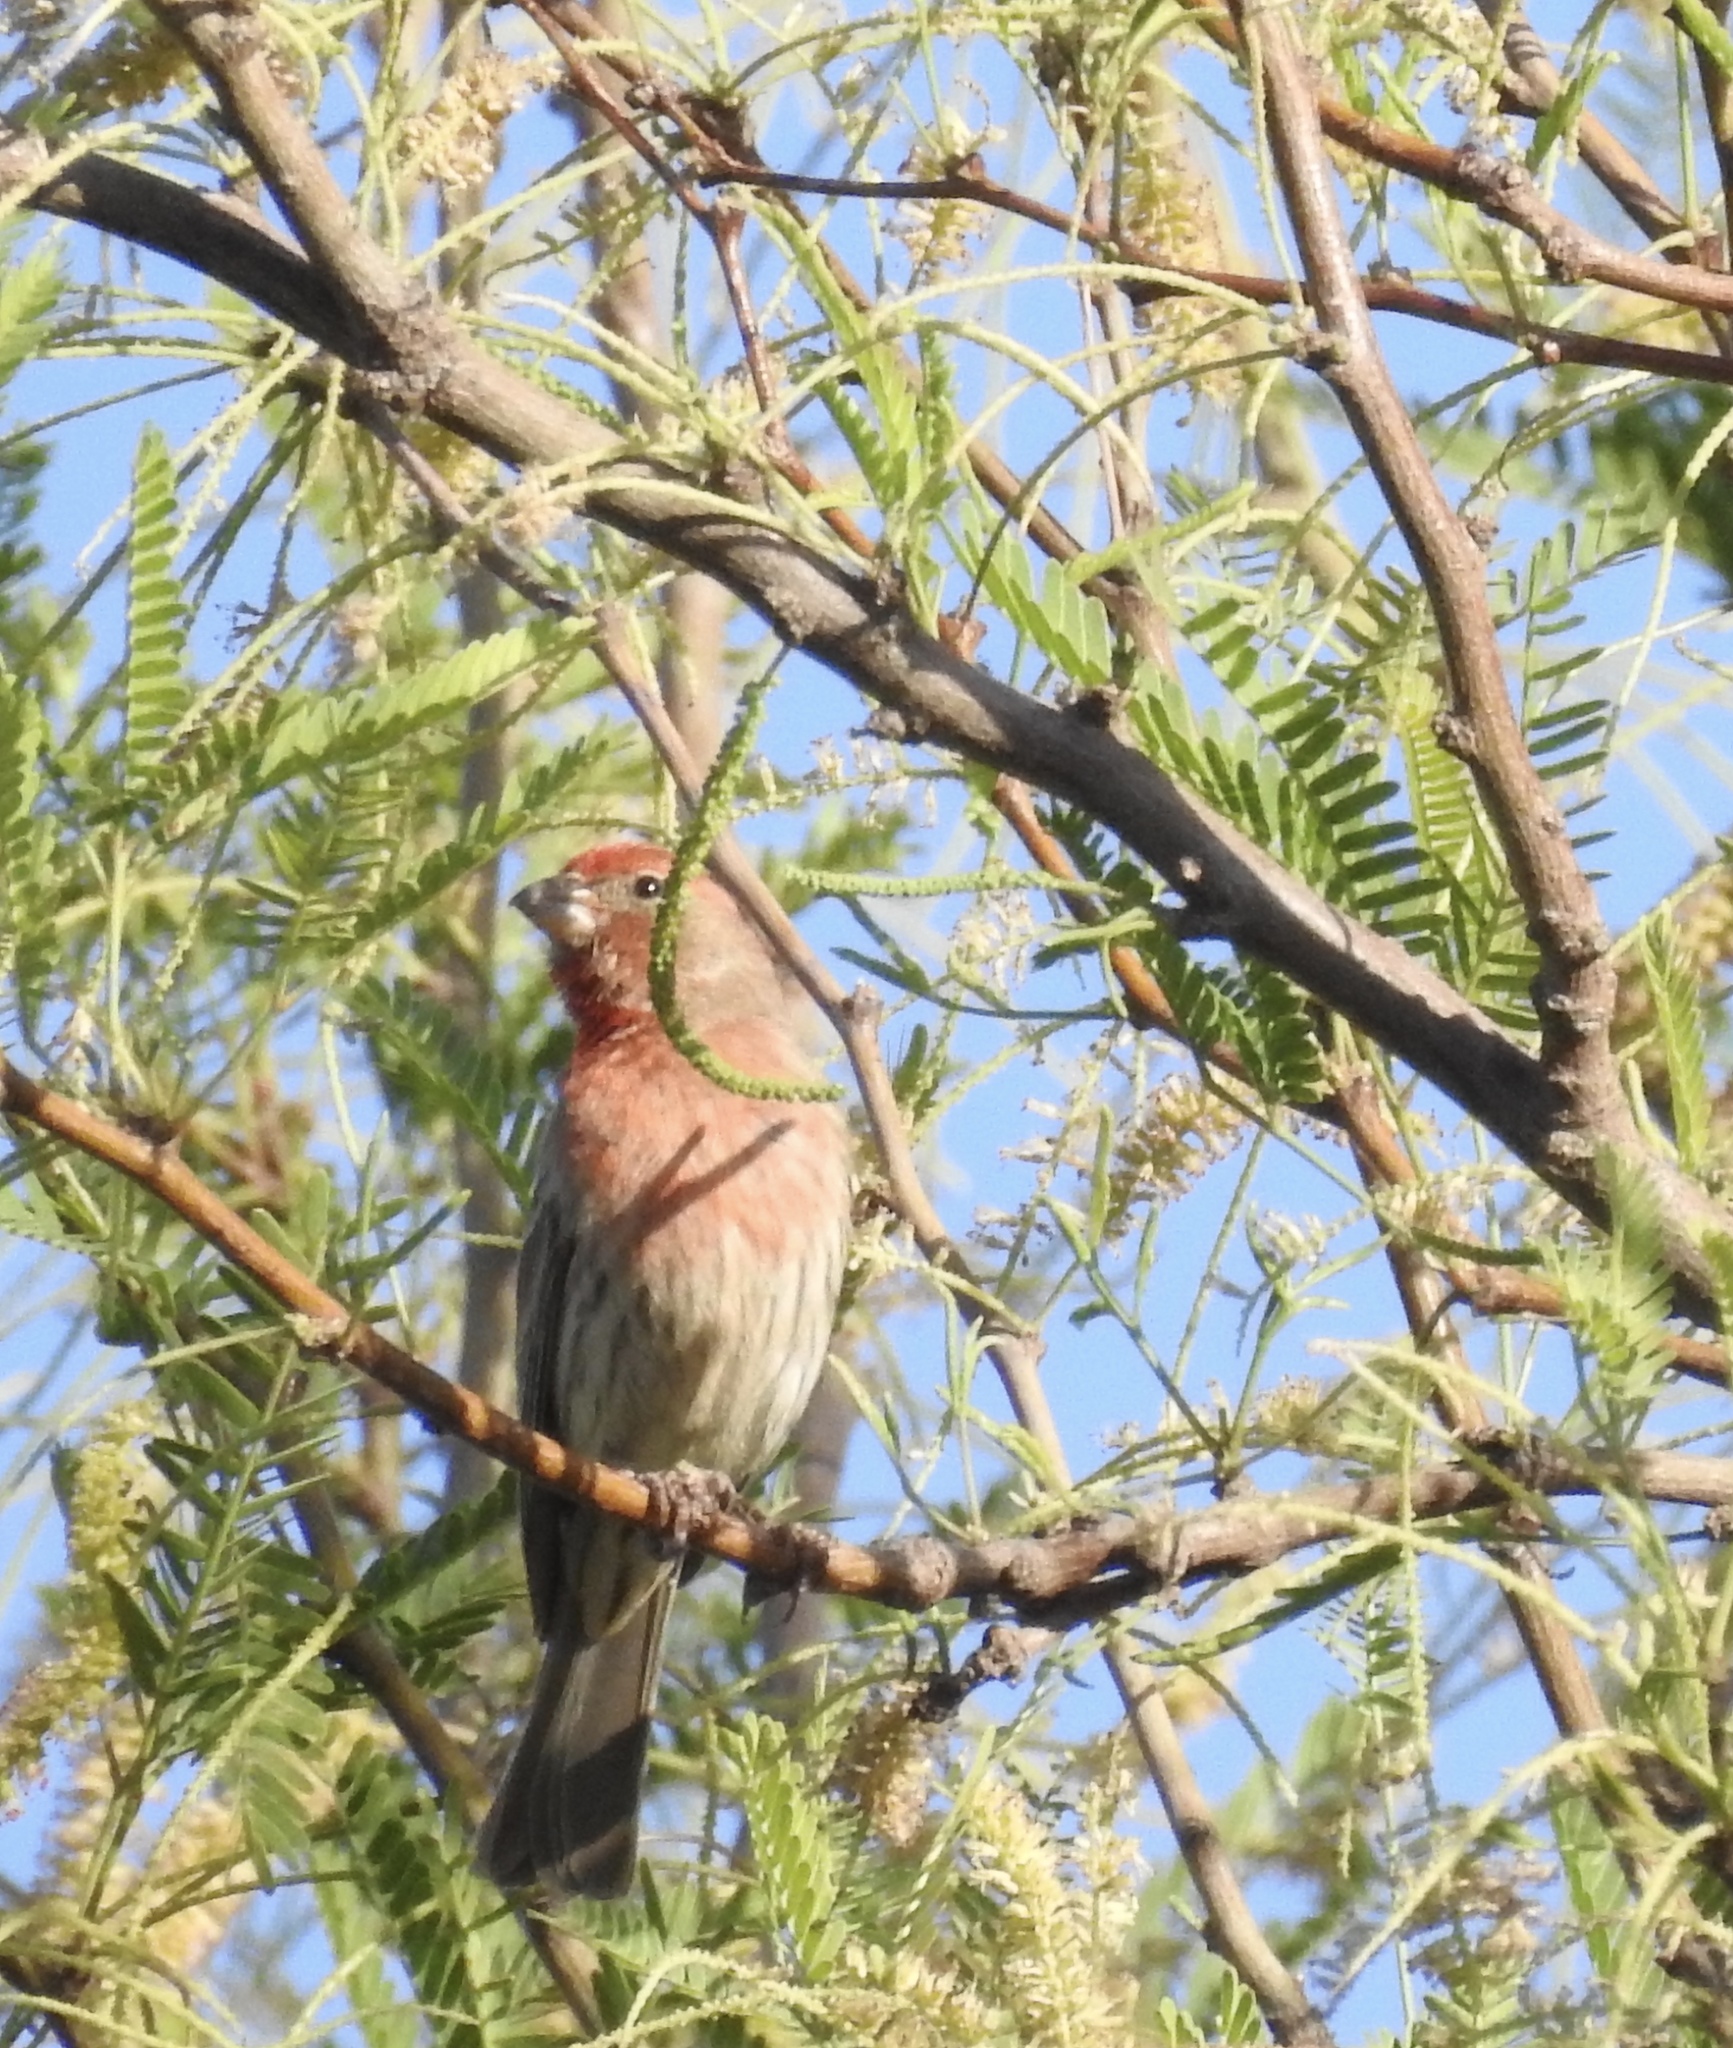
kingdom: Animalia
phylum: Chordata
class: Aves
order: Passeriformes
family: Fringillidae
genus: Haemorhous
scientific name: Haemorhous mexicanus
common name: House finch
